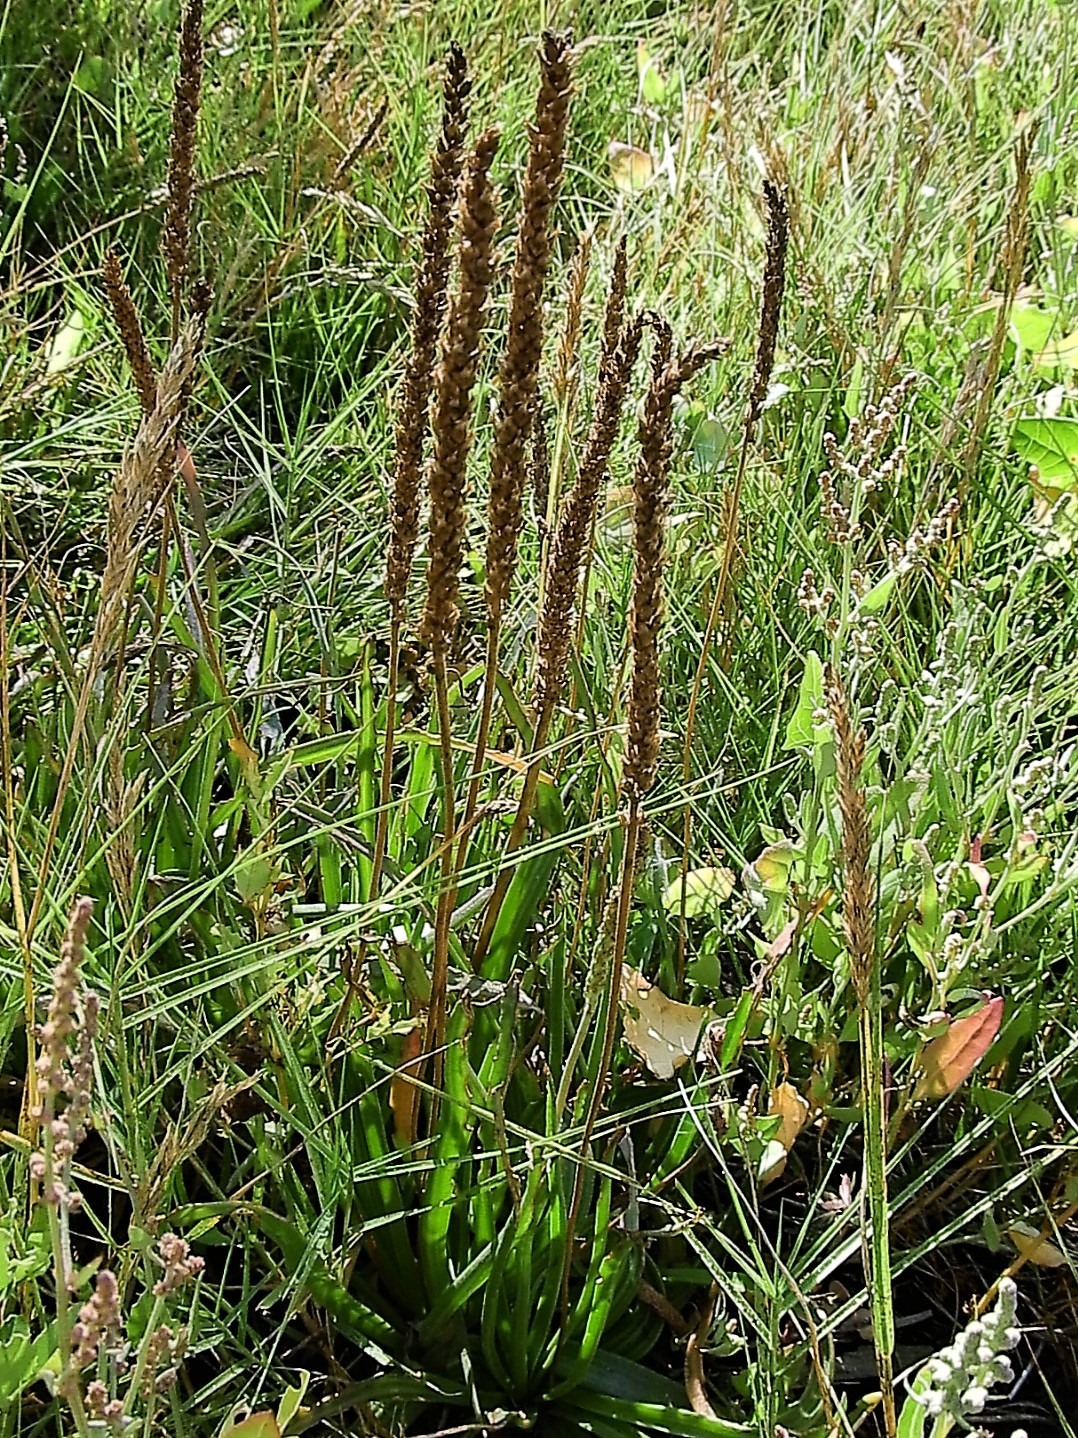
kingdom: Plantae
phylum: Tracheophyta
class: Magnoliopsida
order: Lamiales
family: Plantaginaceae
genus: Plantago
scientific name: Plantago maritima
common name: Sea plantain
